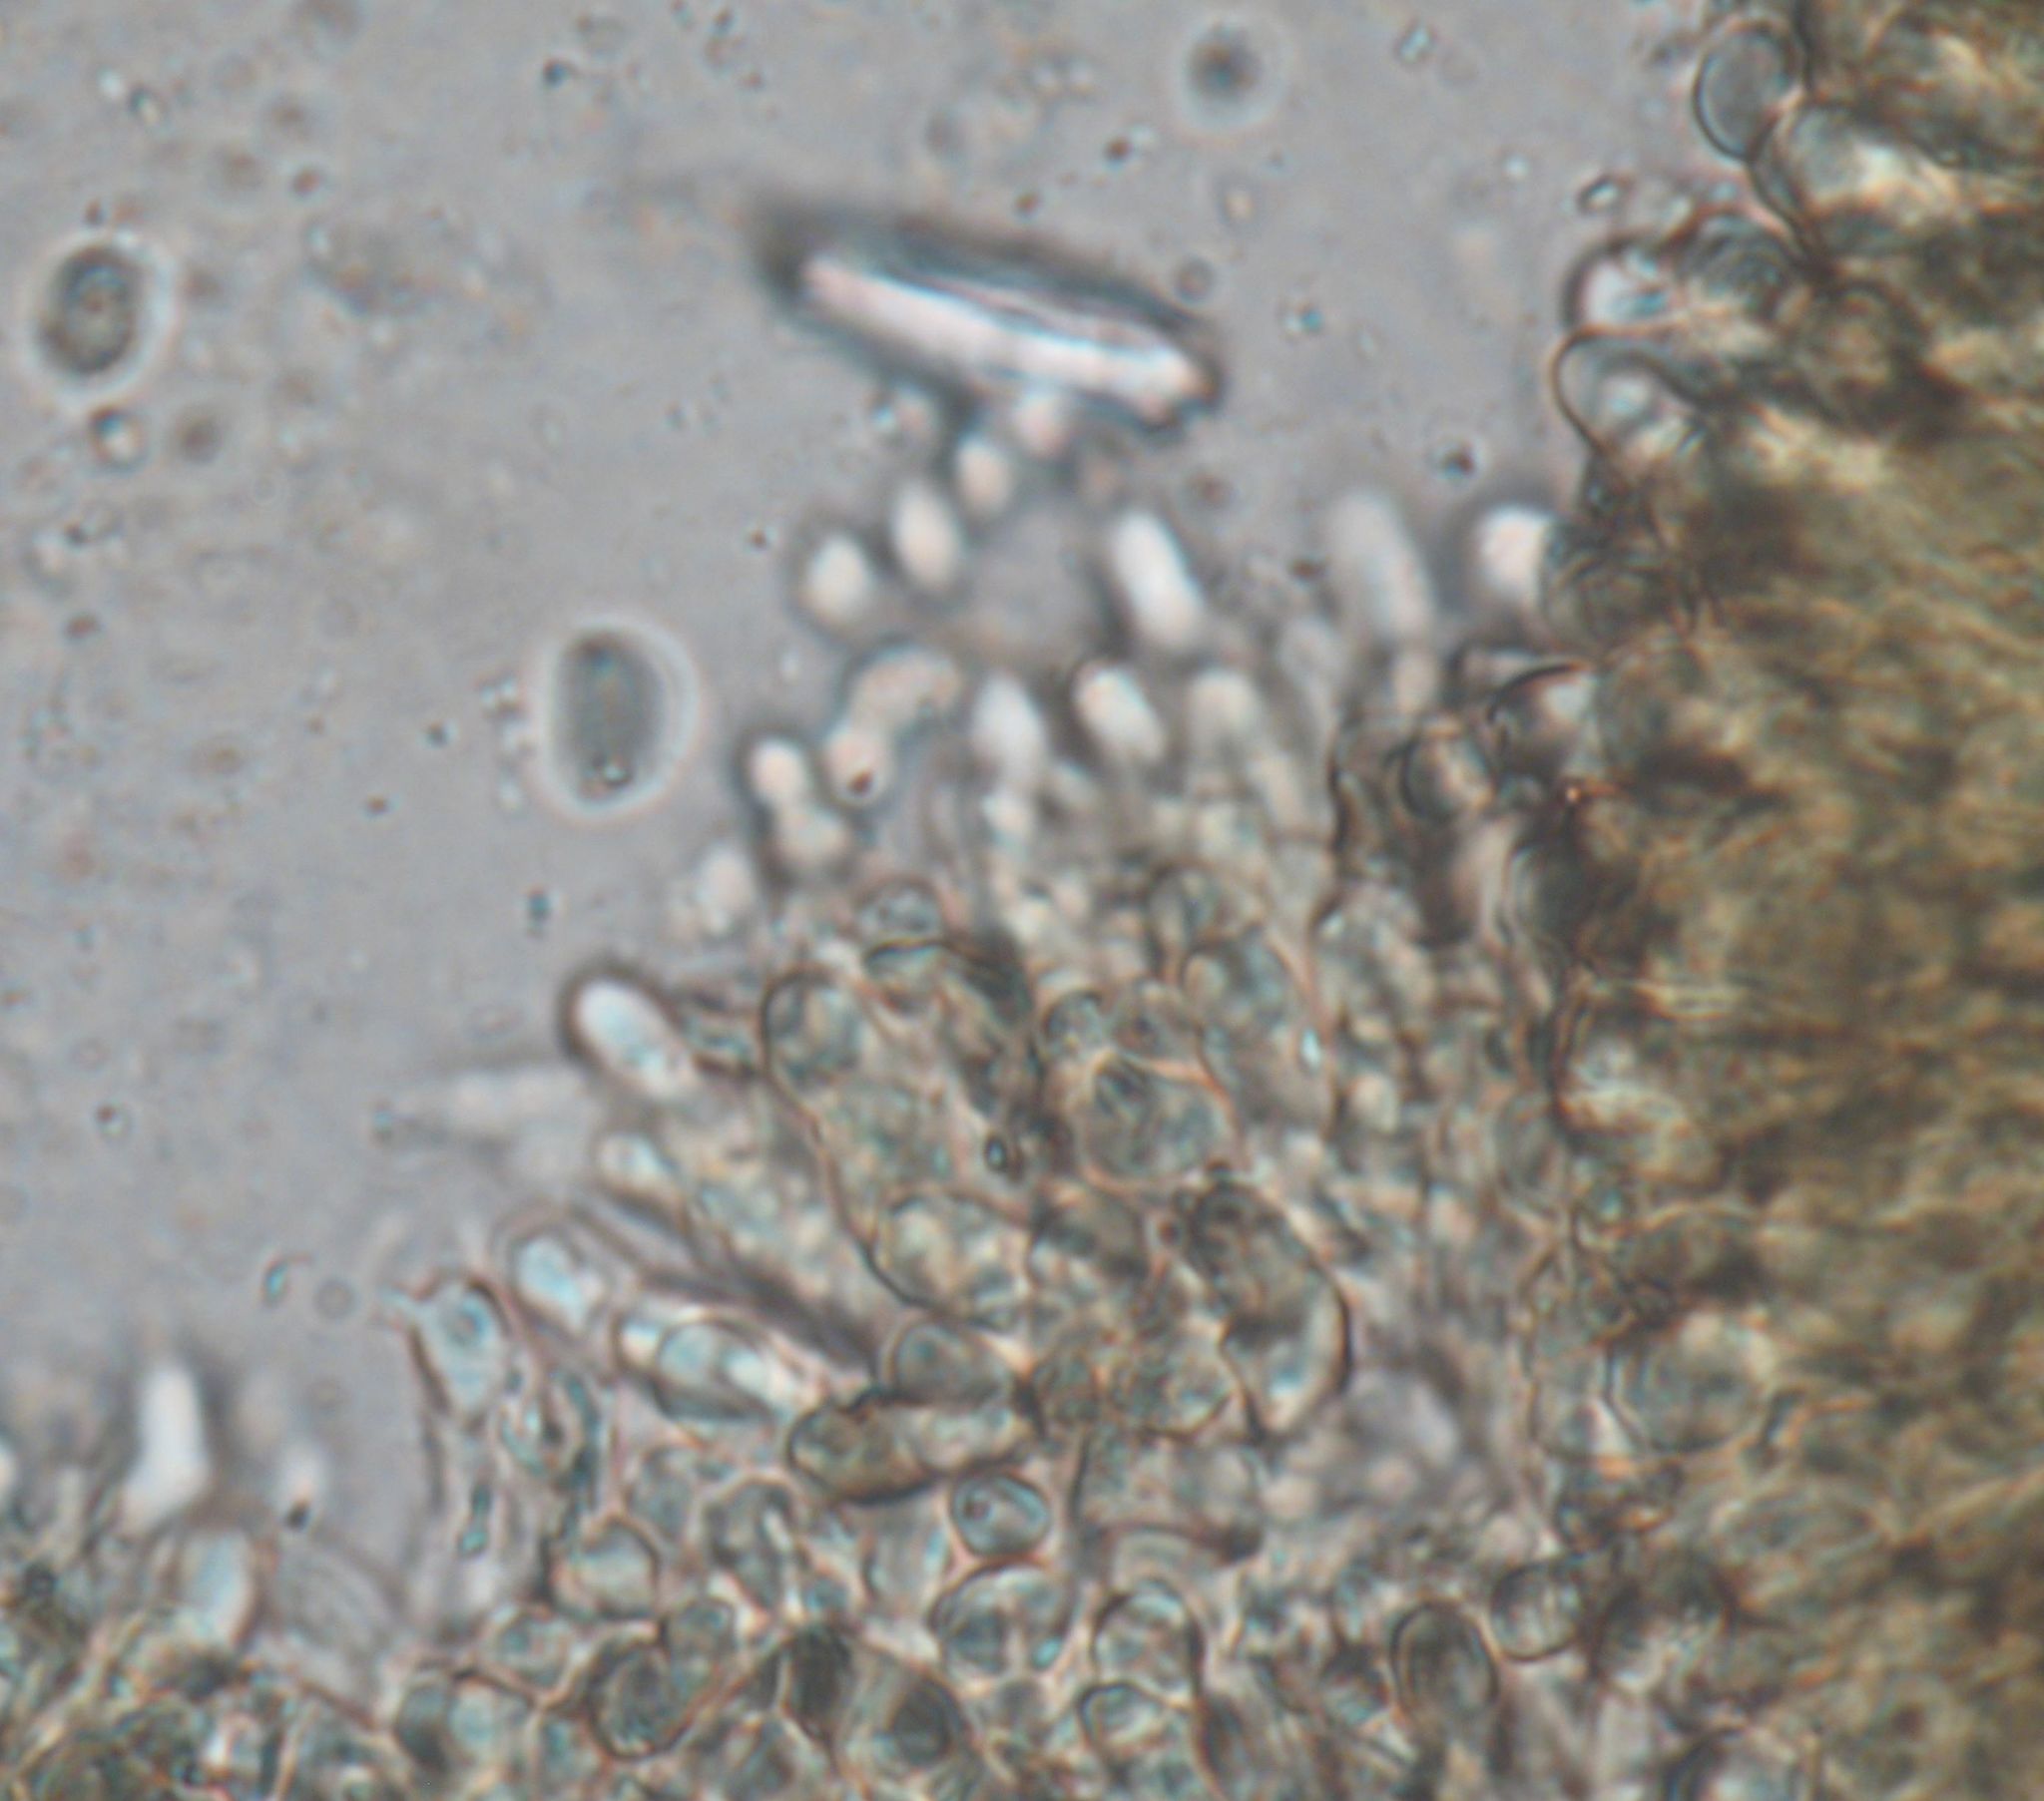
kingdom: Fungi
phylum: Basidiomycota
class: Agaricomycetes
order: Agaricales
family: Hygrophoraceae
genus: Hygrocybe
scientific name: Hygrocybe astatogala
